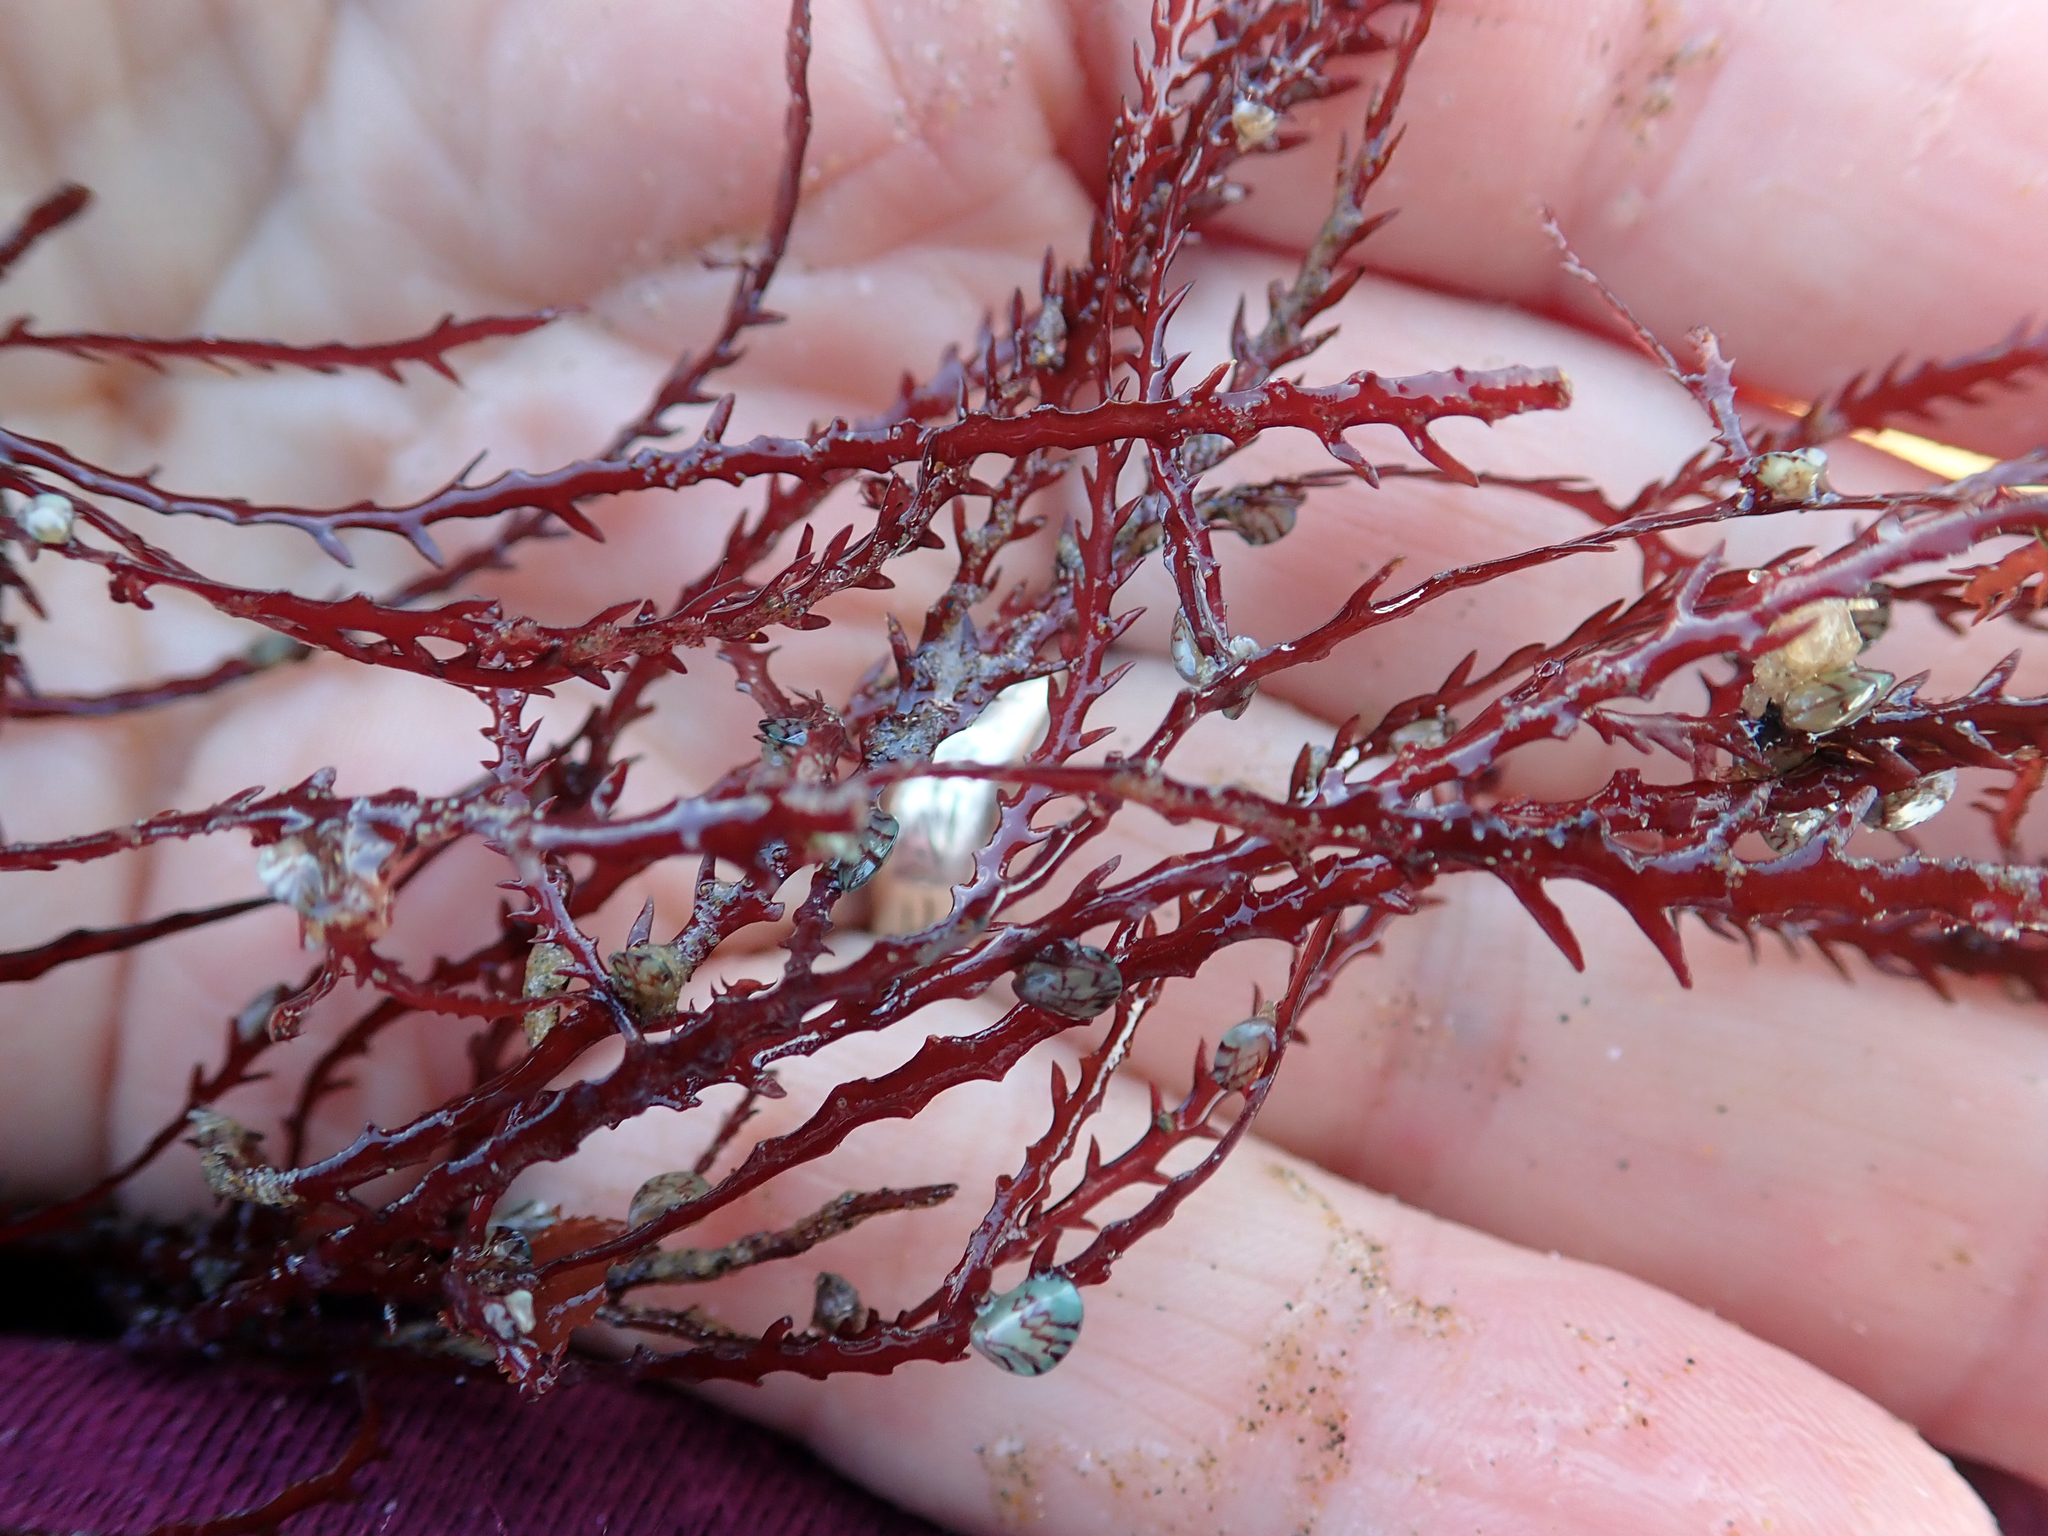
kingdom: Plantae
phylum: Rhodophyta
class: Florideophyceae
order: Ceramiales
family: Rhodomelaceae
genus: Vidalia
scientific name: Vidalia colensoi
